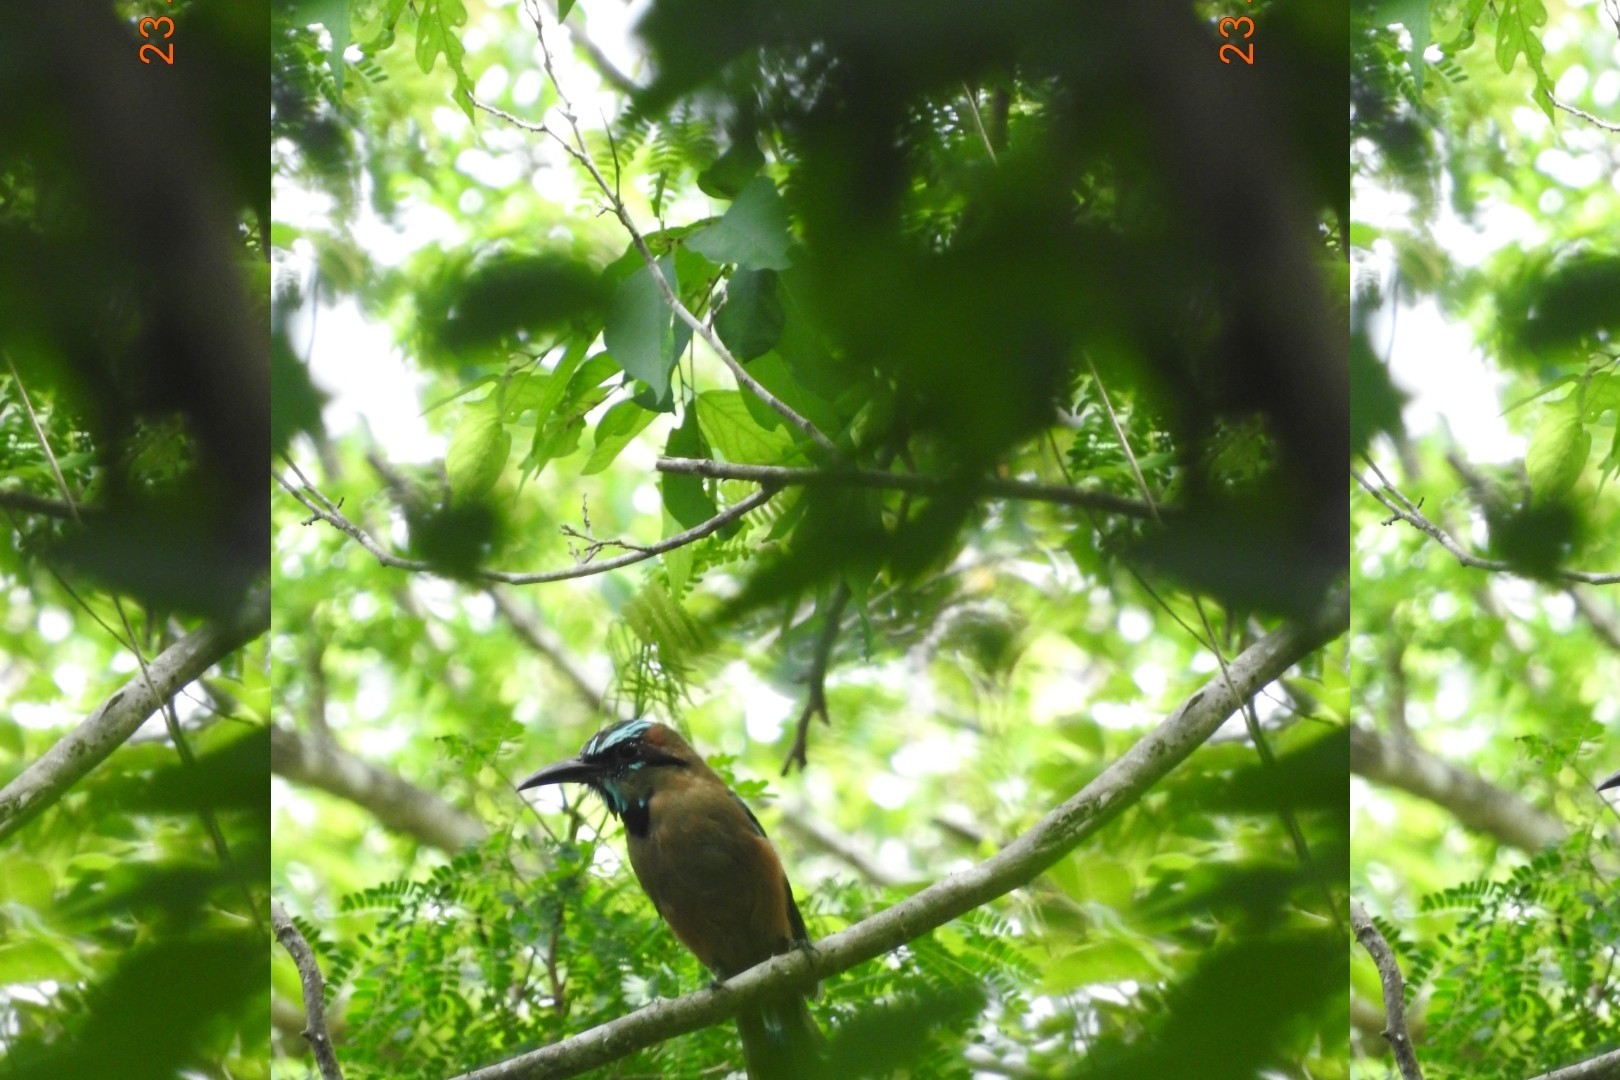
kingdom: Animalia
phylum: Chordata
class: Aves
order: Coraciiformes
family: Momotidae
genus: Eumomota
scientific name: Eumomota superciliosa
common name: Turquoise-browed motmot
